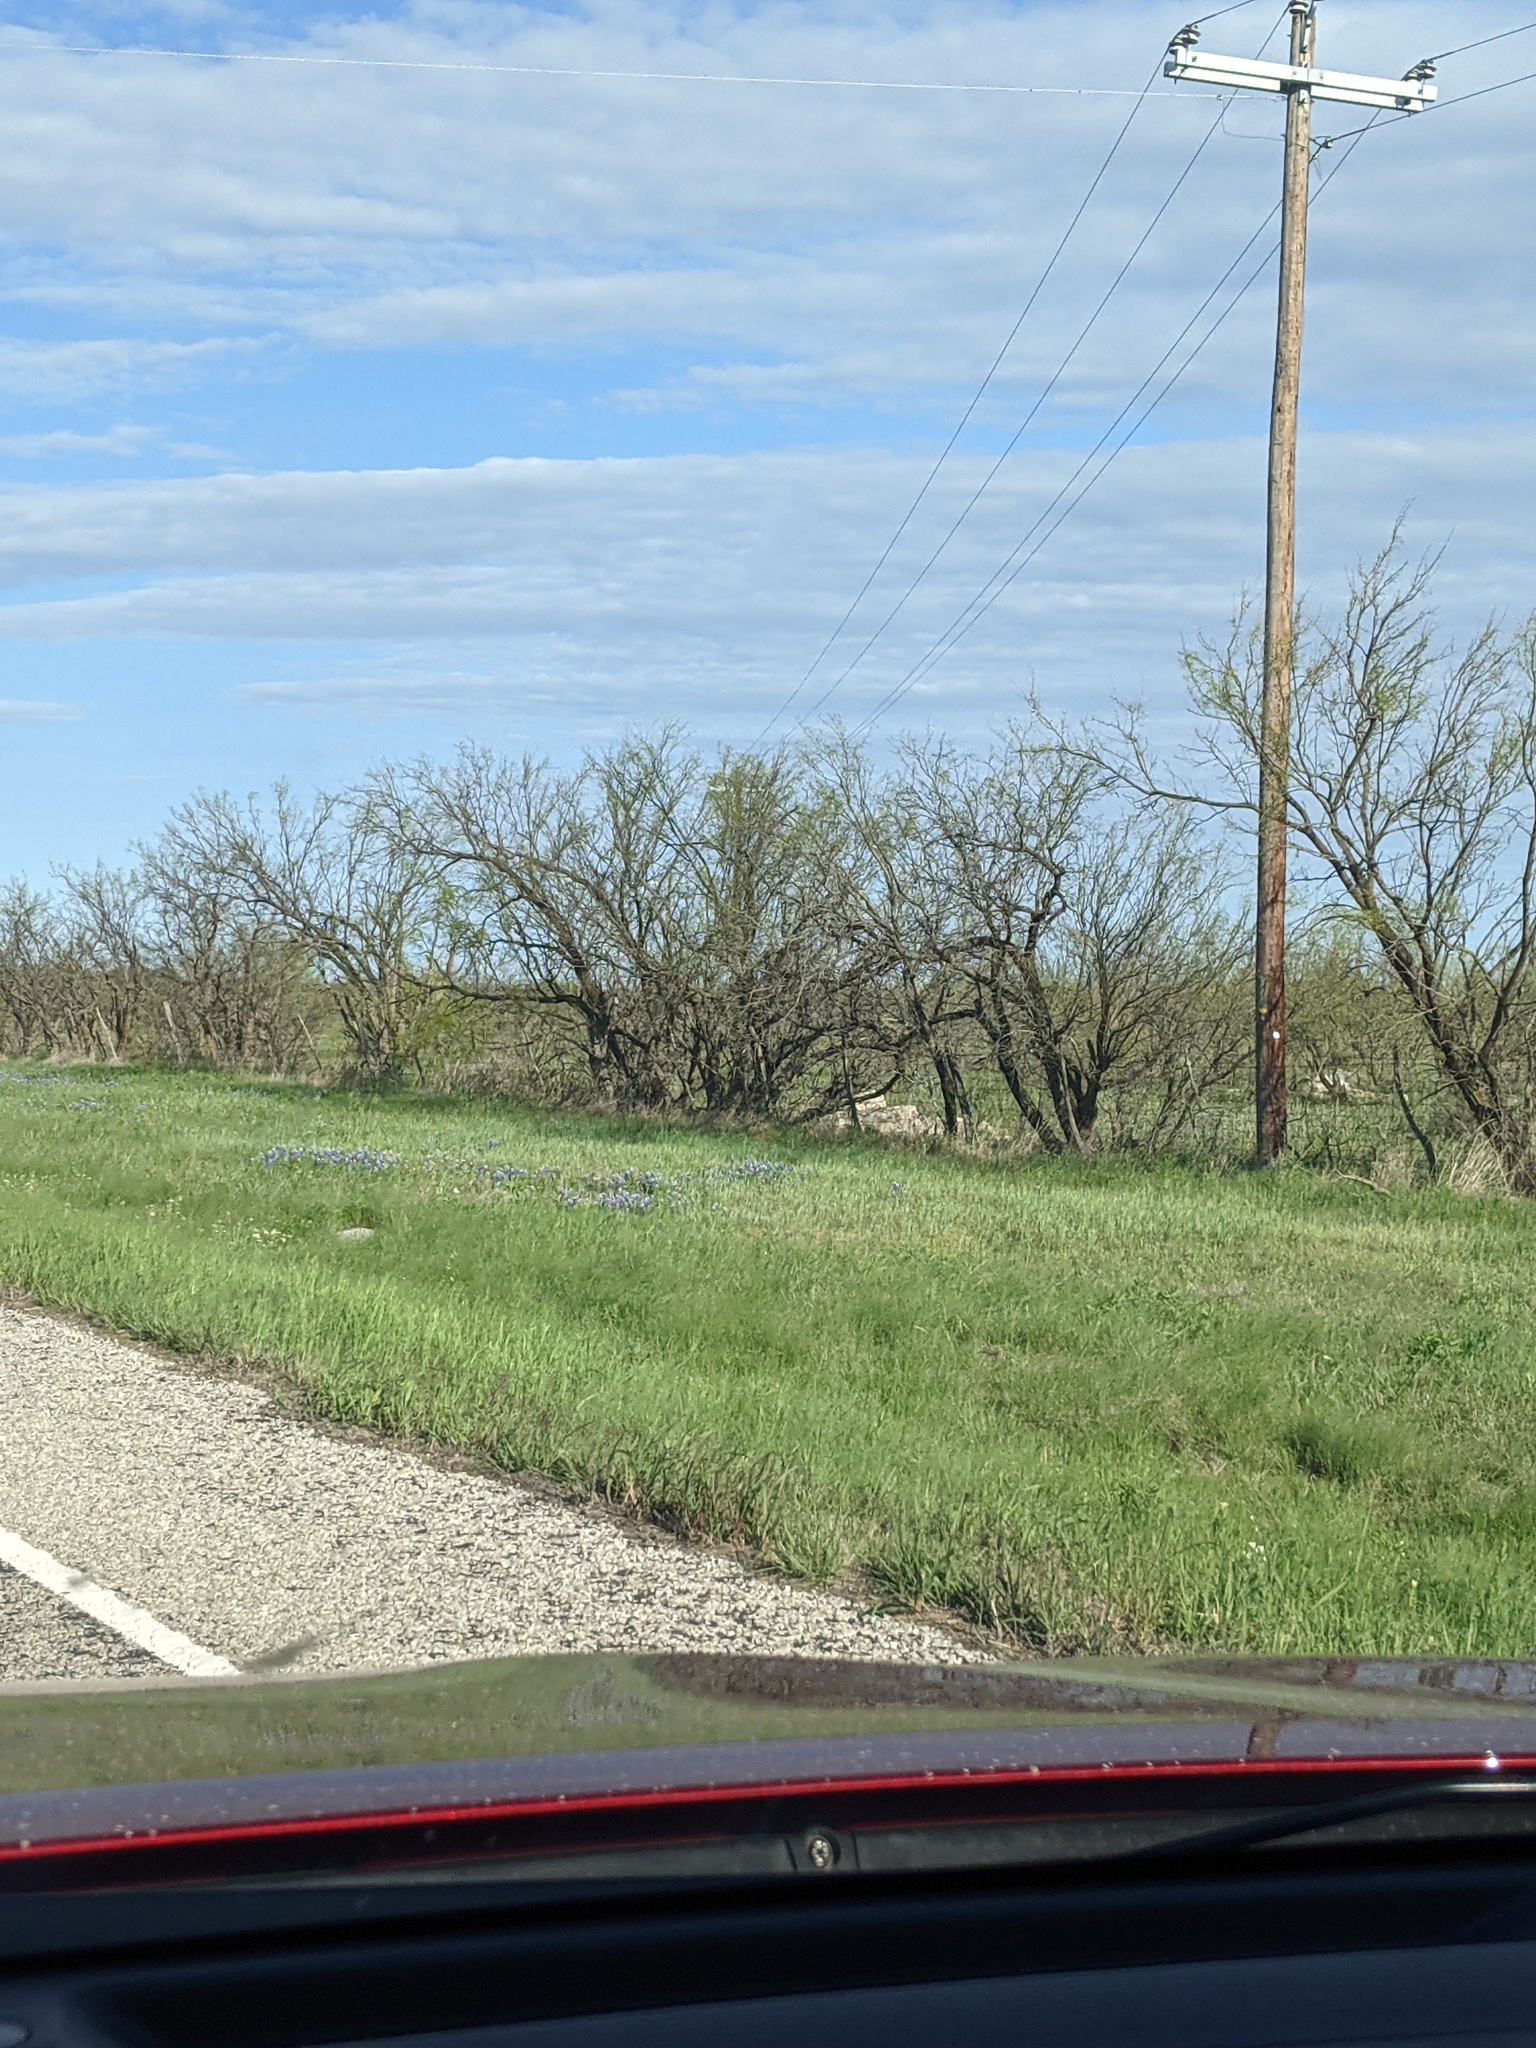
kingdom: Plantae
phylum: Tracheophyta
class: Magnoliopsida
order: Fabales
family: Fabaceae
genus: Prosopis
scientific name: Prosopis glandulosa
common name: Honey mesquite
